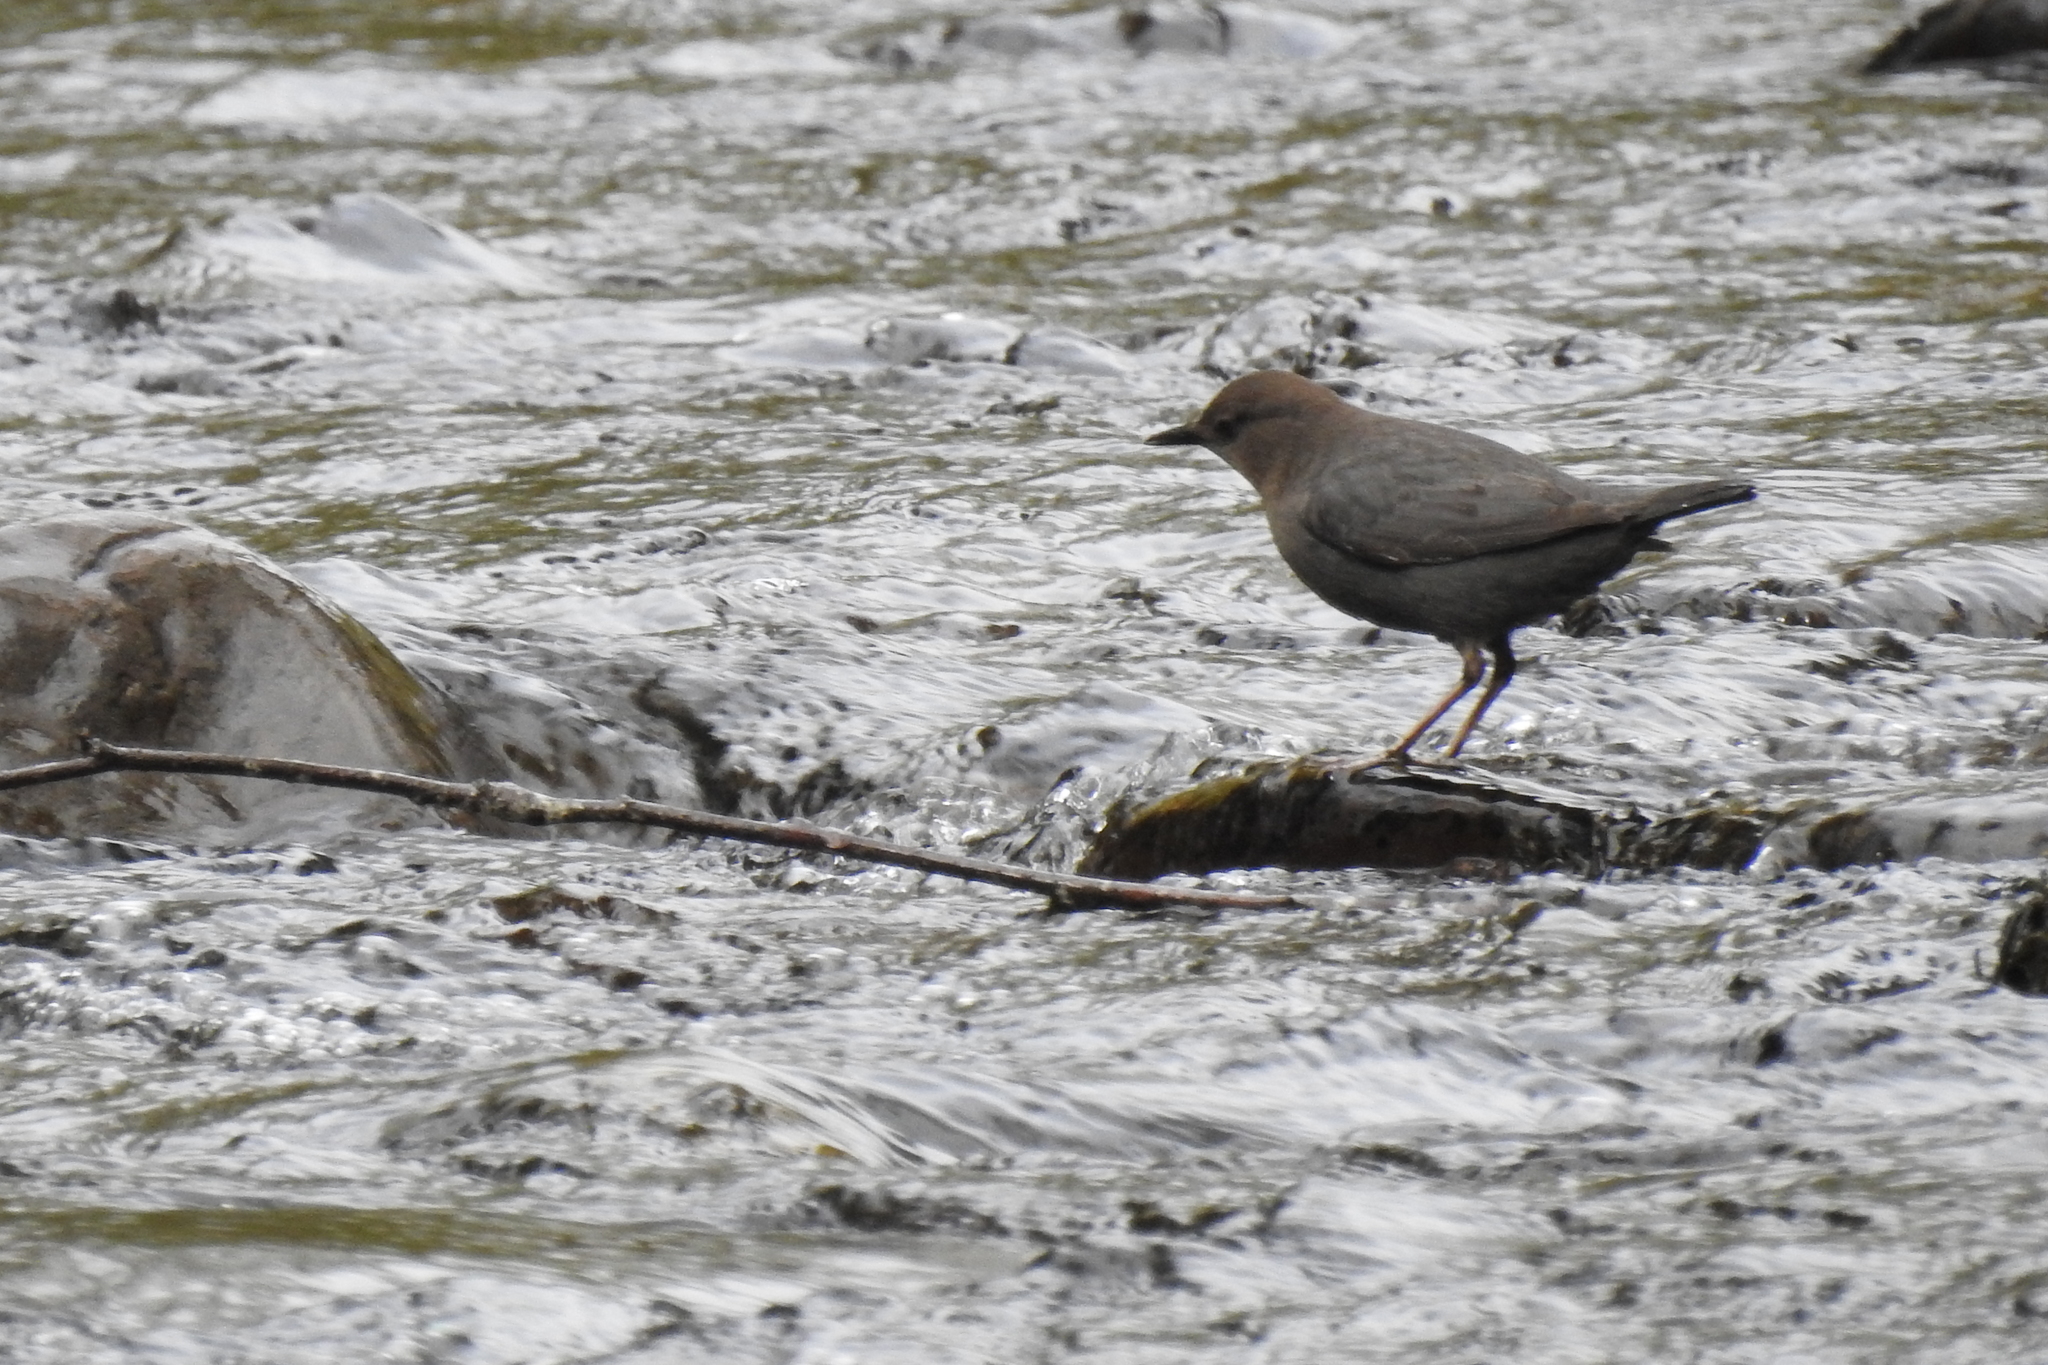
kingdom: Animalia
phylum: Chordata
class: Aves
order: Passeriformes
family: Cinclidae
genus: Cinclus
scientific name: Cinclus mexicanus
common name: American dipper
